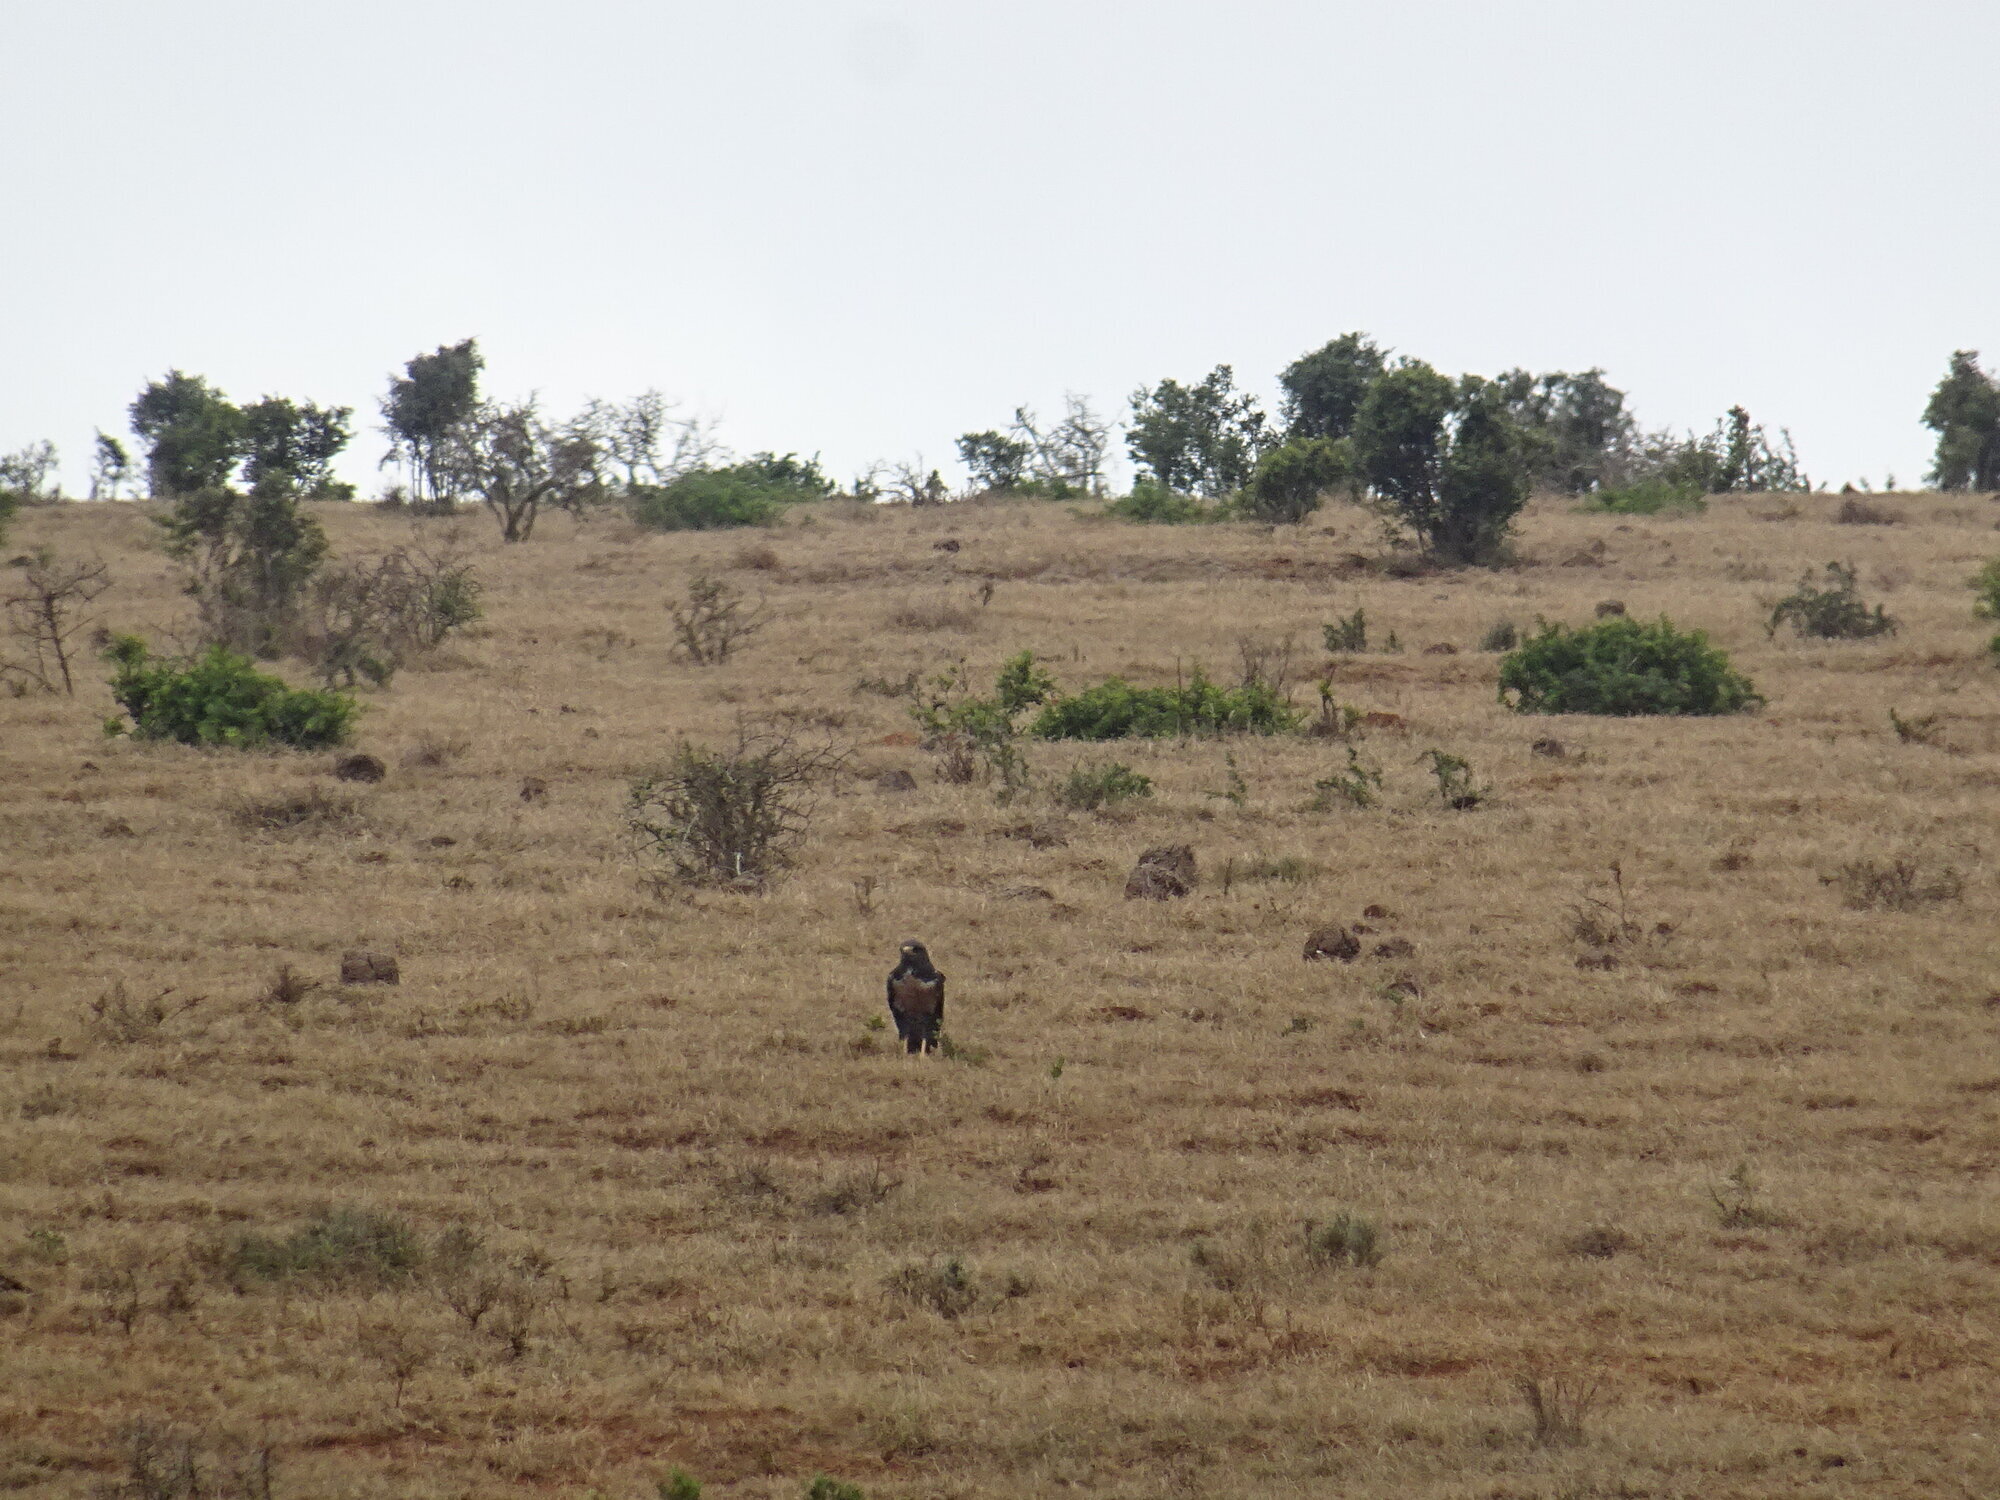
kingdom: Animalia
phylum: Chordata
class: Aves
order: Accipitriformes
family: Accipitridae
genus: Buteo
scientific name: Buteo rufofuscus
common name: Jackal buzzard
